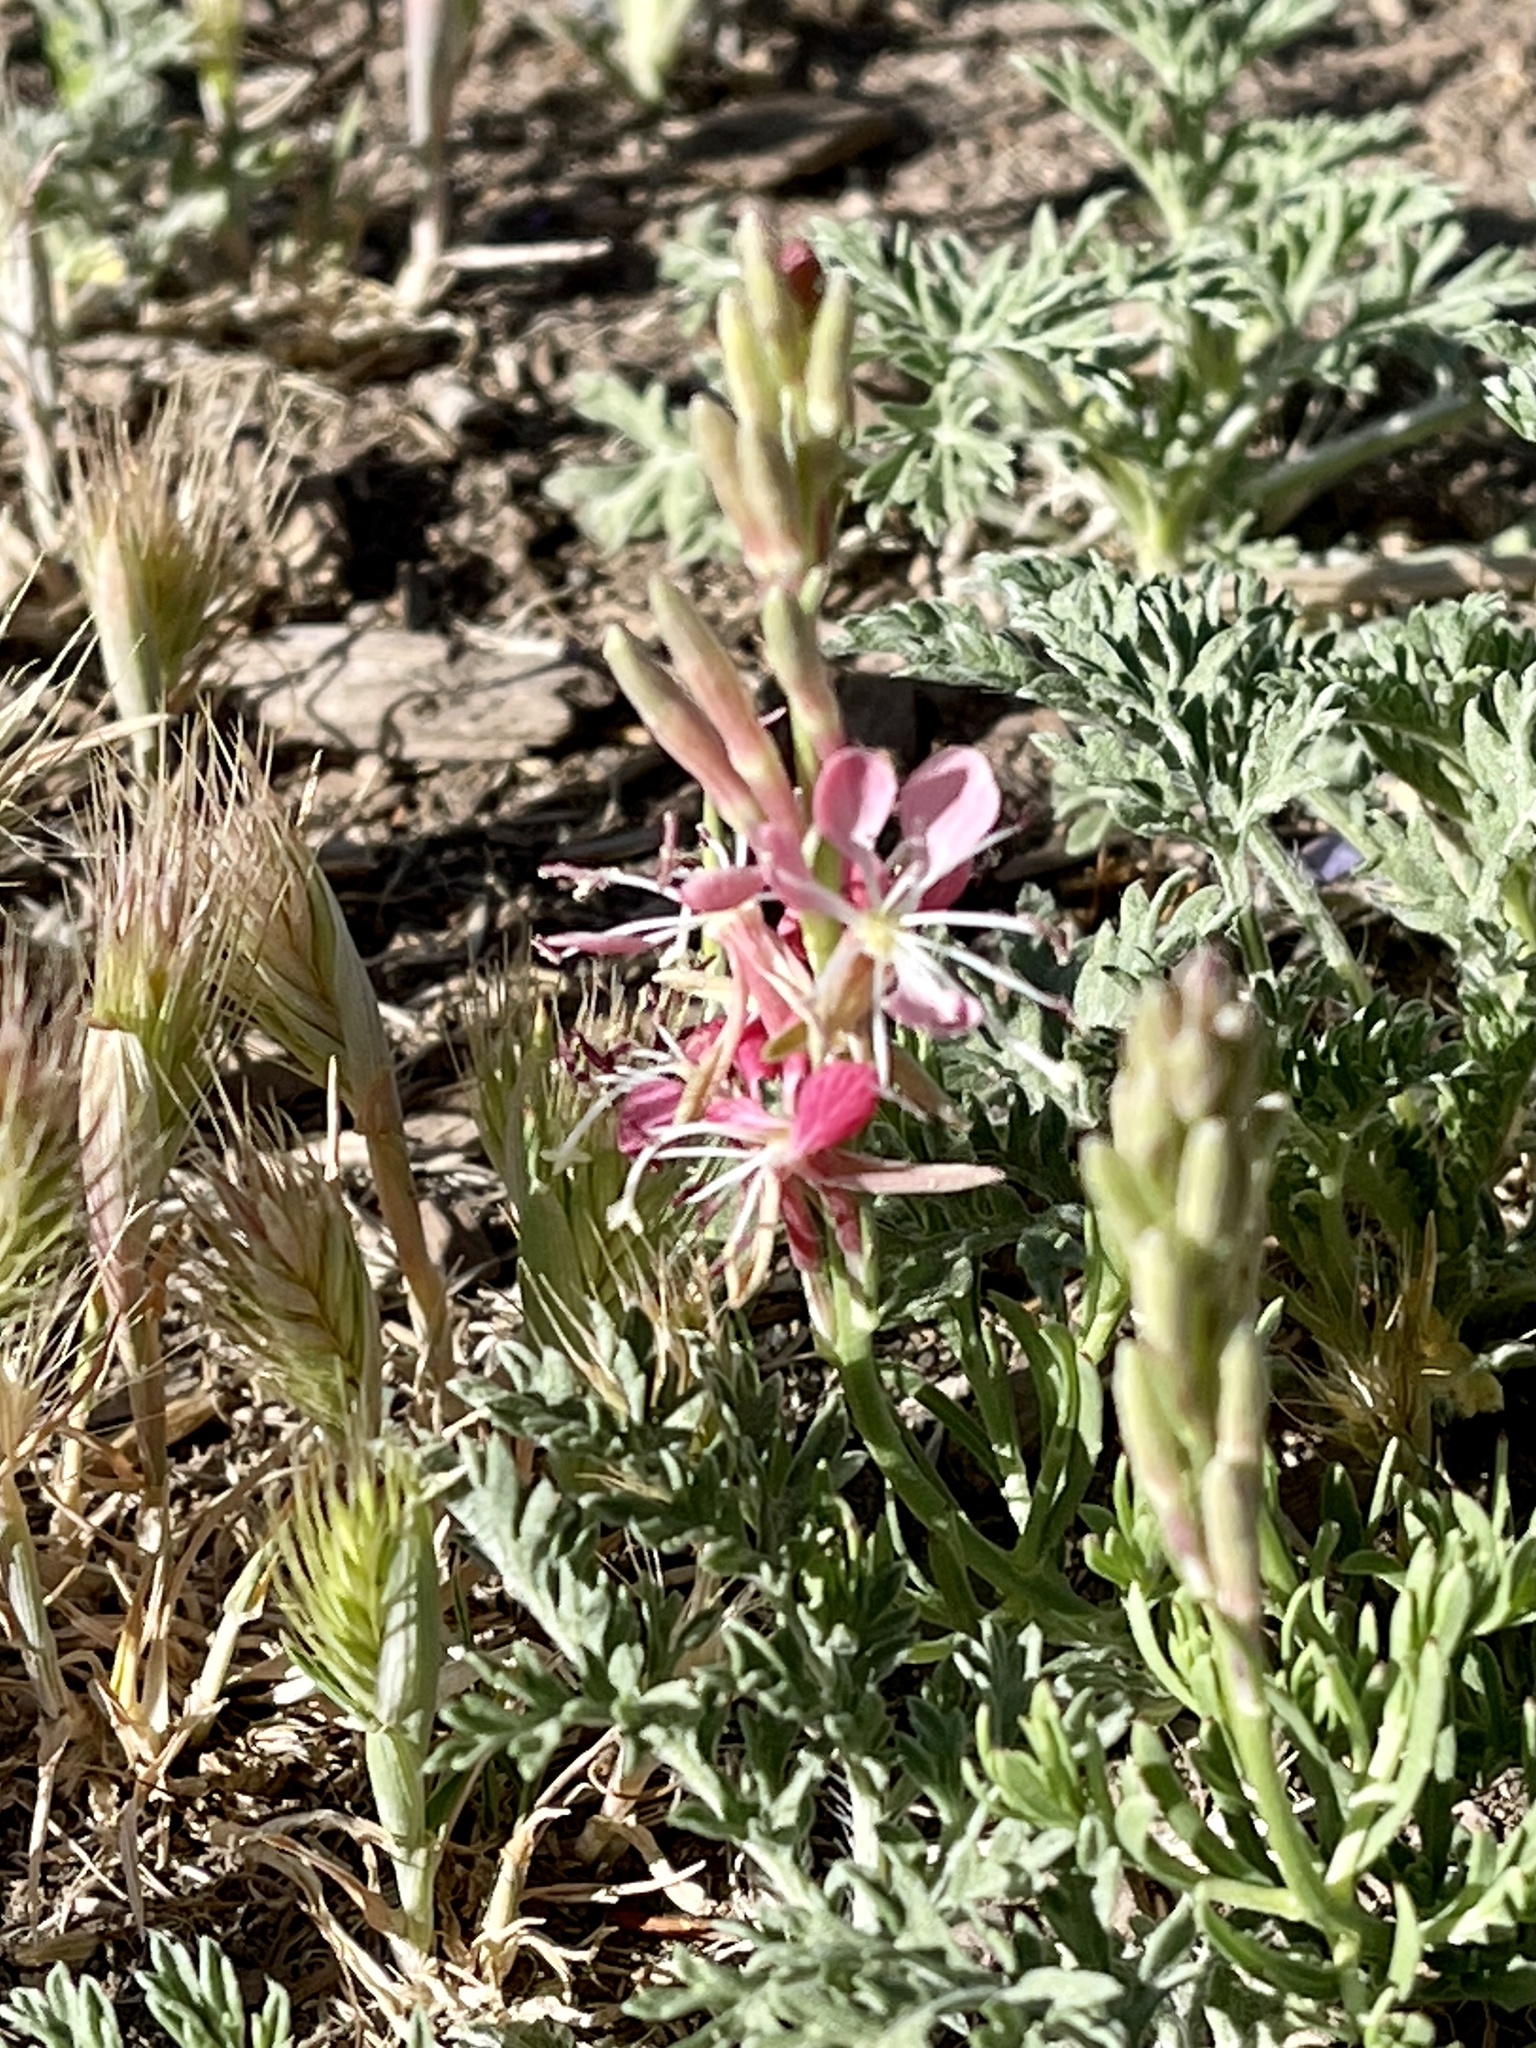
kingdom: Plantae
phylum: Tracheophyta
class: Magnoliopsida
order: Myrtales
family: Onagraceae
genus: Oenothera
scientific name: Oenothera suffrutescens
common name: Scarlet beeblossom
